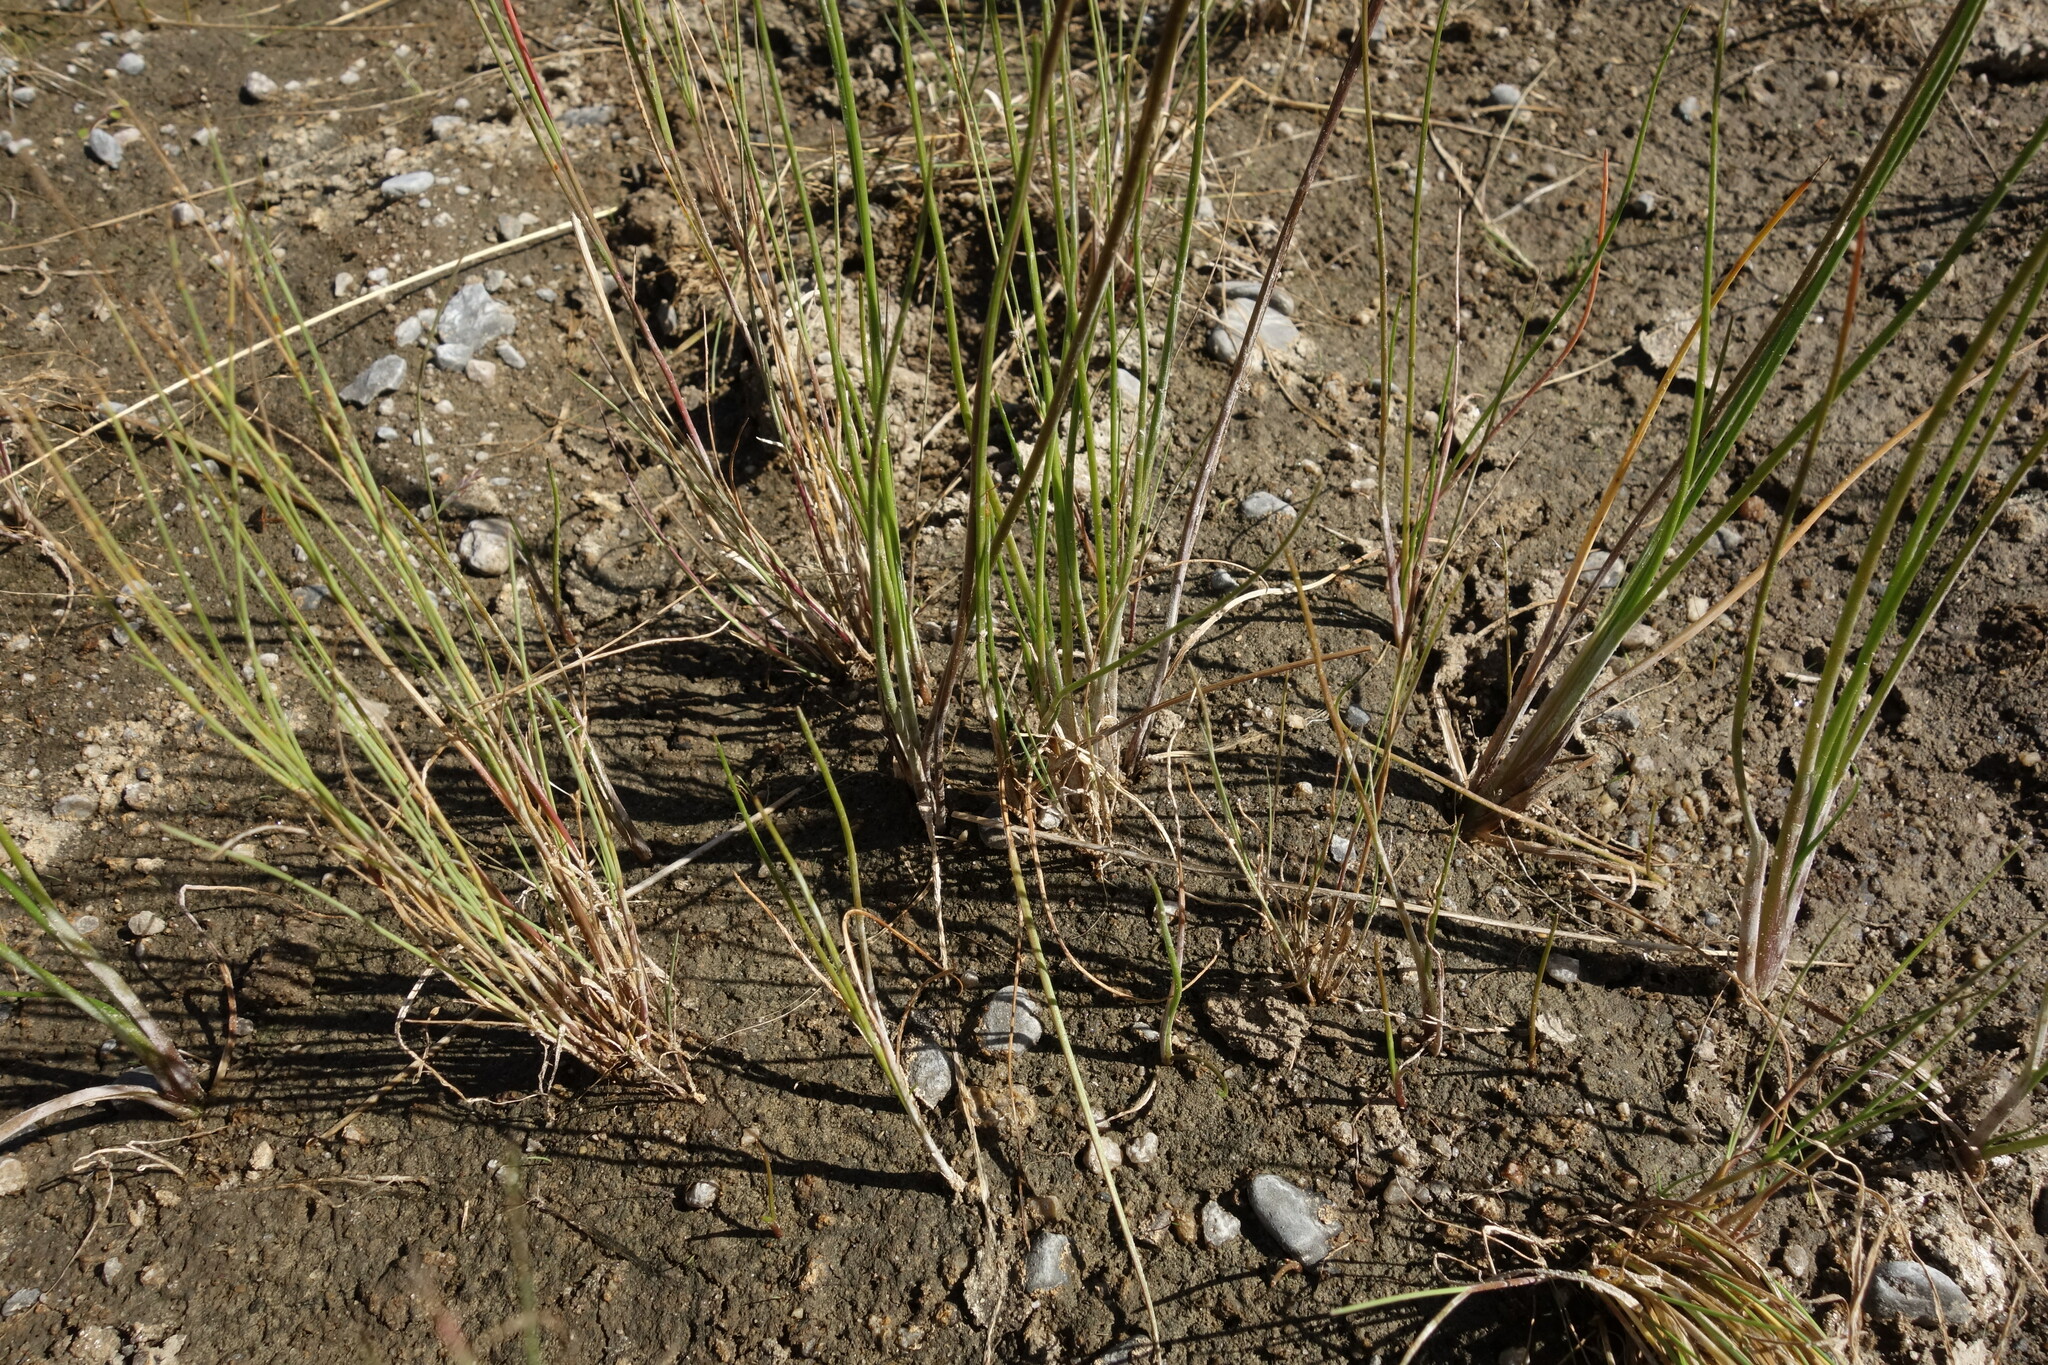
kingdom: Plantae
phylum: Tracheophyta
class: Liliopsida
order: Alismatales
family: Juncaginaceae
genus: Triglochin
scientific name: Triglochin palustris
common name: Marsh arrowgrass
